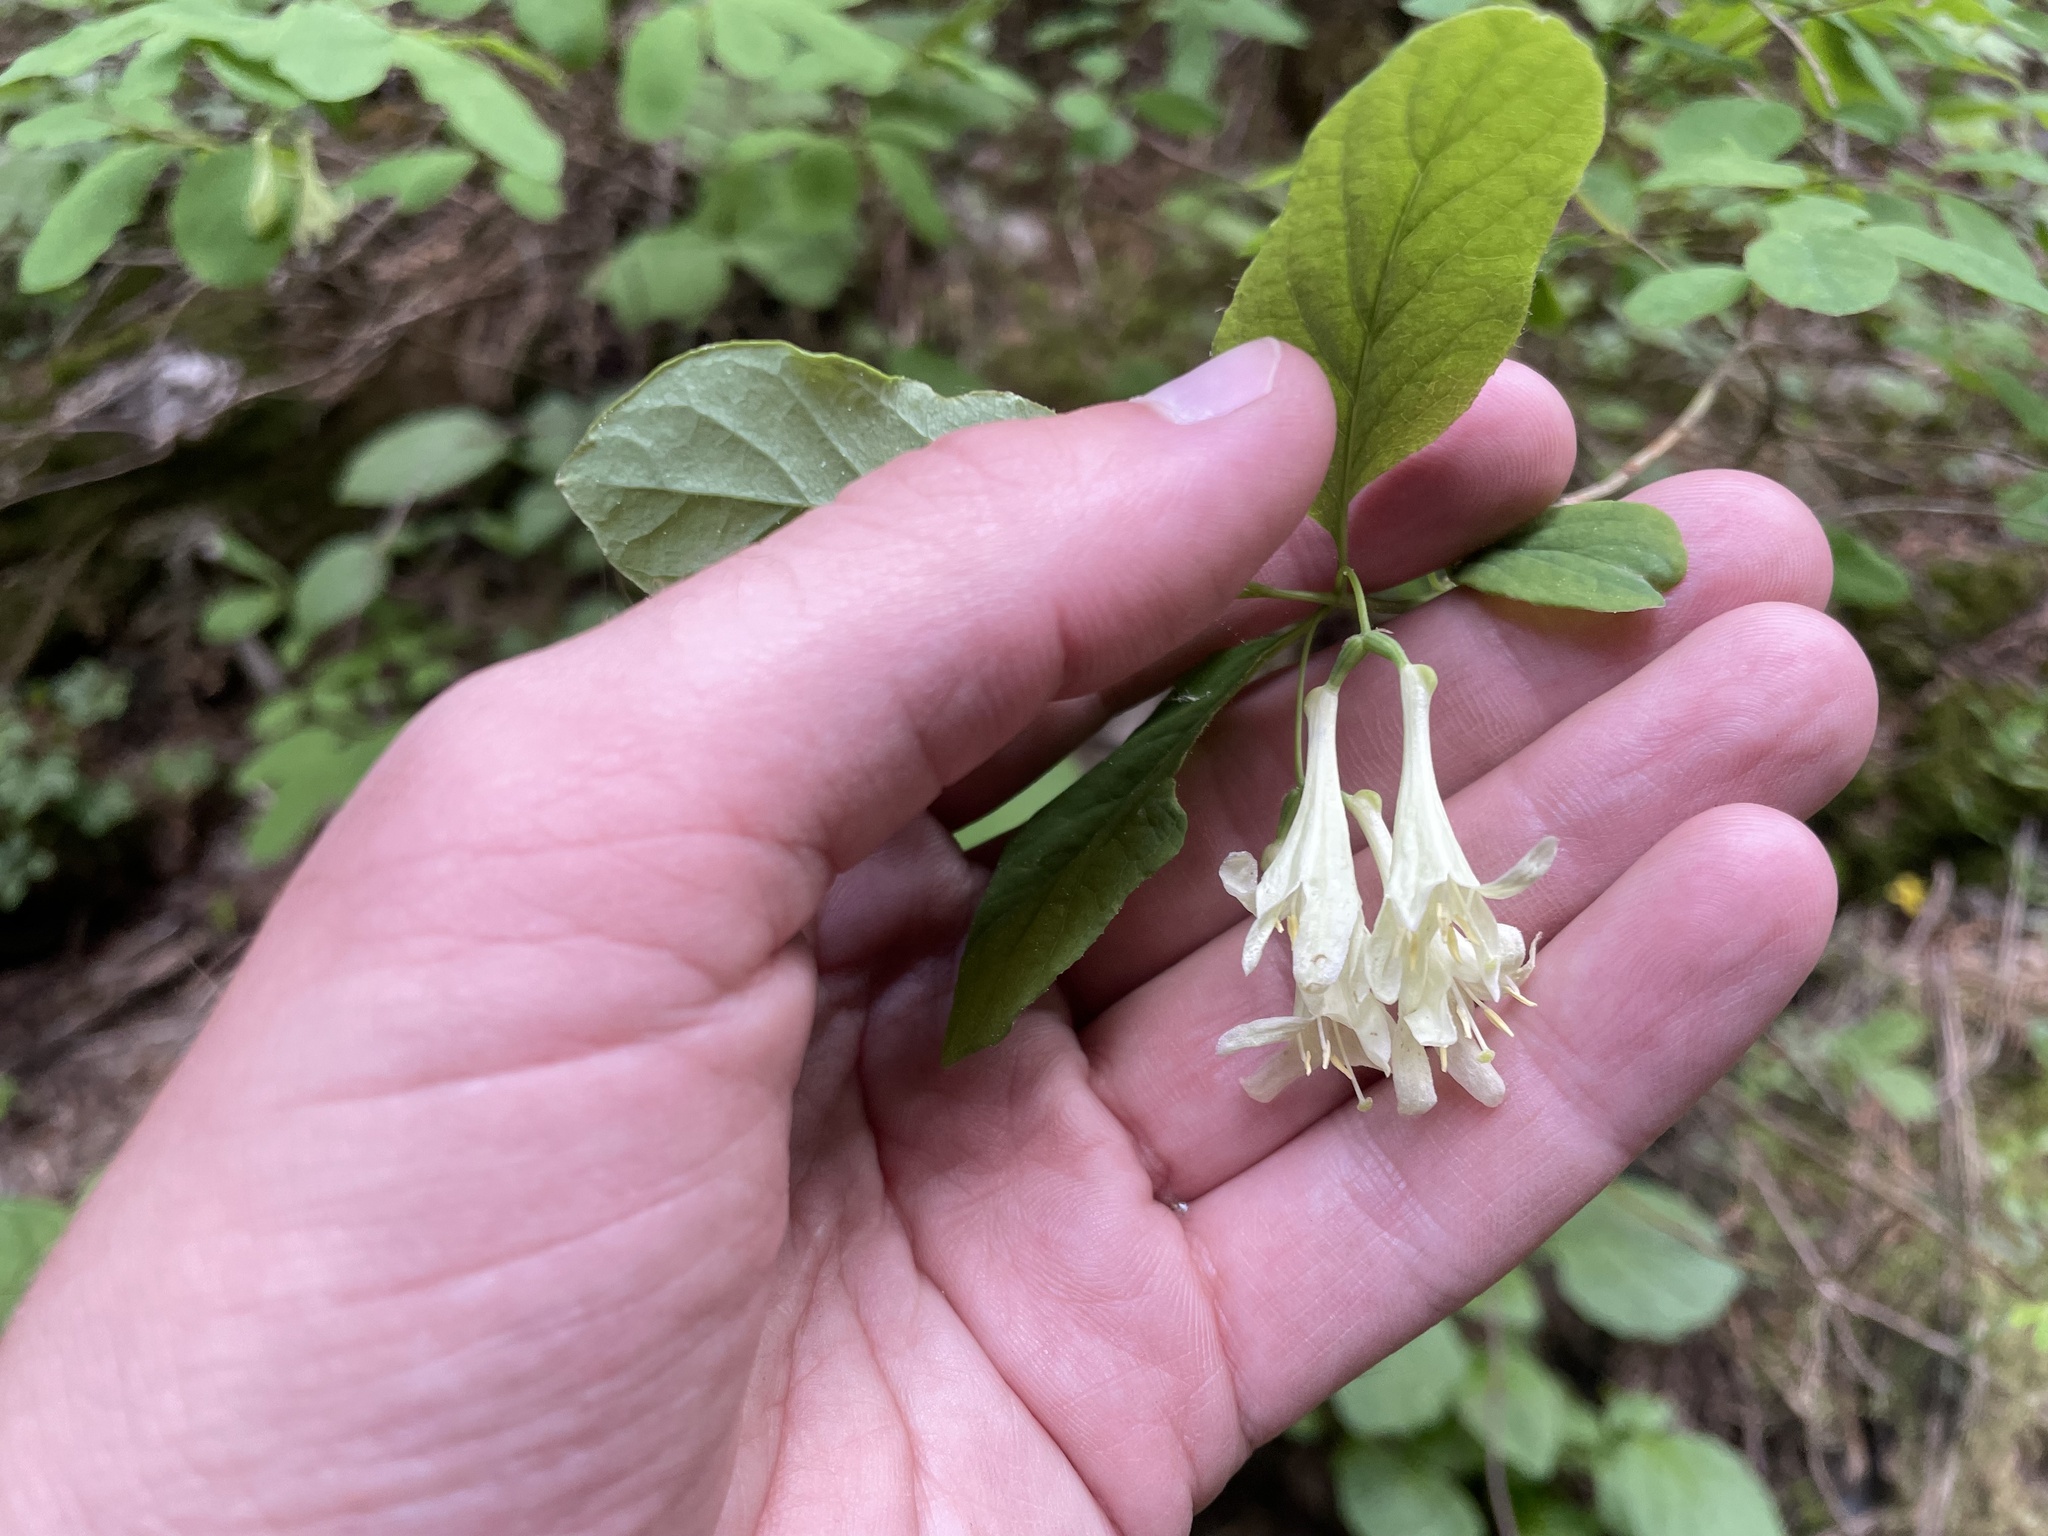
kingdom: Plantae
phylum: Tracheophyta
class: Magnoliopsida
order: Dipsacales
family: Caprifoliaceae
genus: Lonicera
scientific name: Lonicera utahensis
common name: Utah honeysuckle
